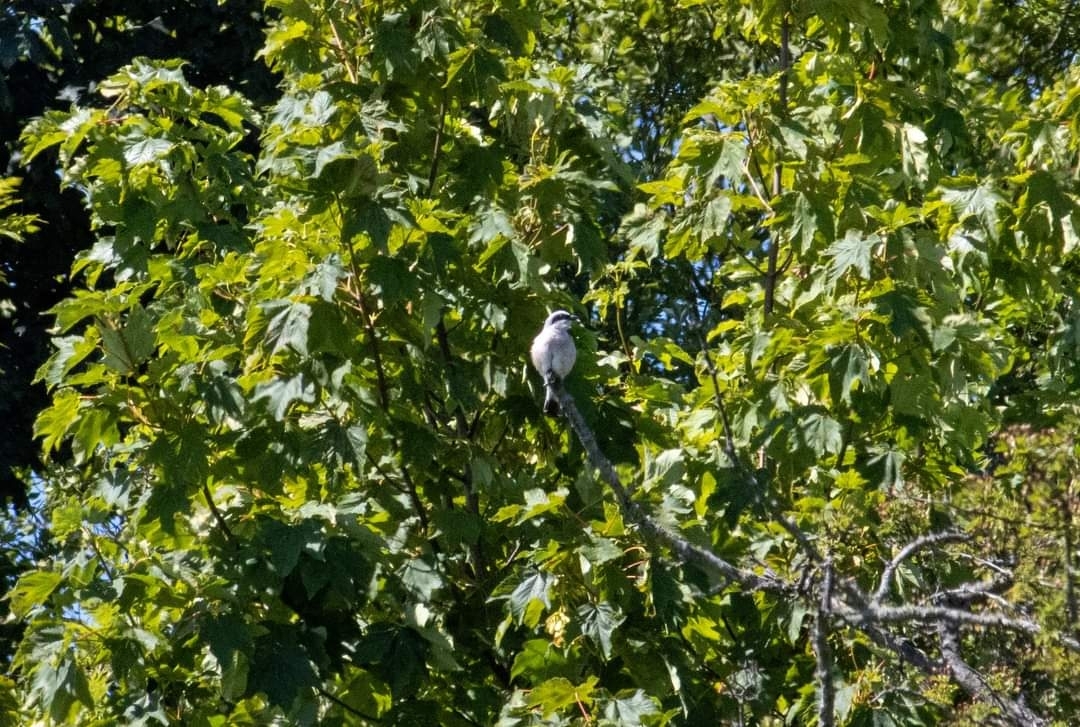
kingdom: Animalia
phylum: Chordata
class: Aves
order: Passeriformes
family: Laniidae
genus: Lanius
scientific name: Lanius collurio
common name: Red-backed shrike
